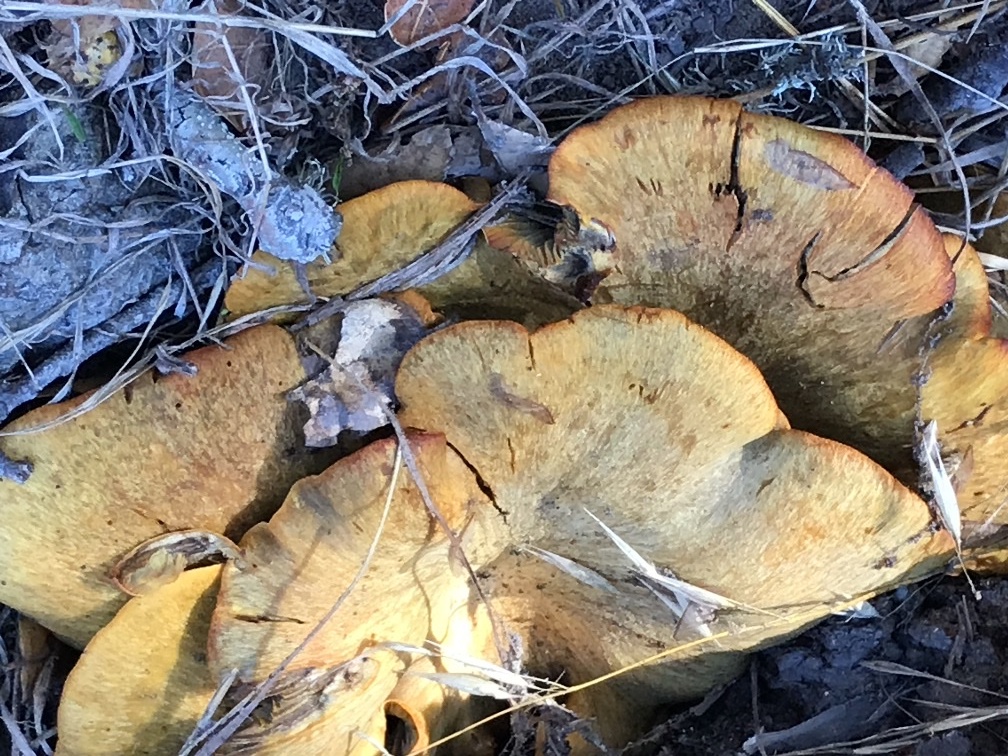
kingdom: Fungi
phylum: Basidiomycota
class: Agaricomycetes
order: Agaricales
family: Omphalotaceae
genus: Omphalotus
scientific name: Omphalotus olivascens
